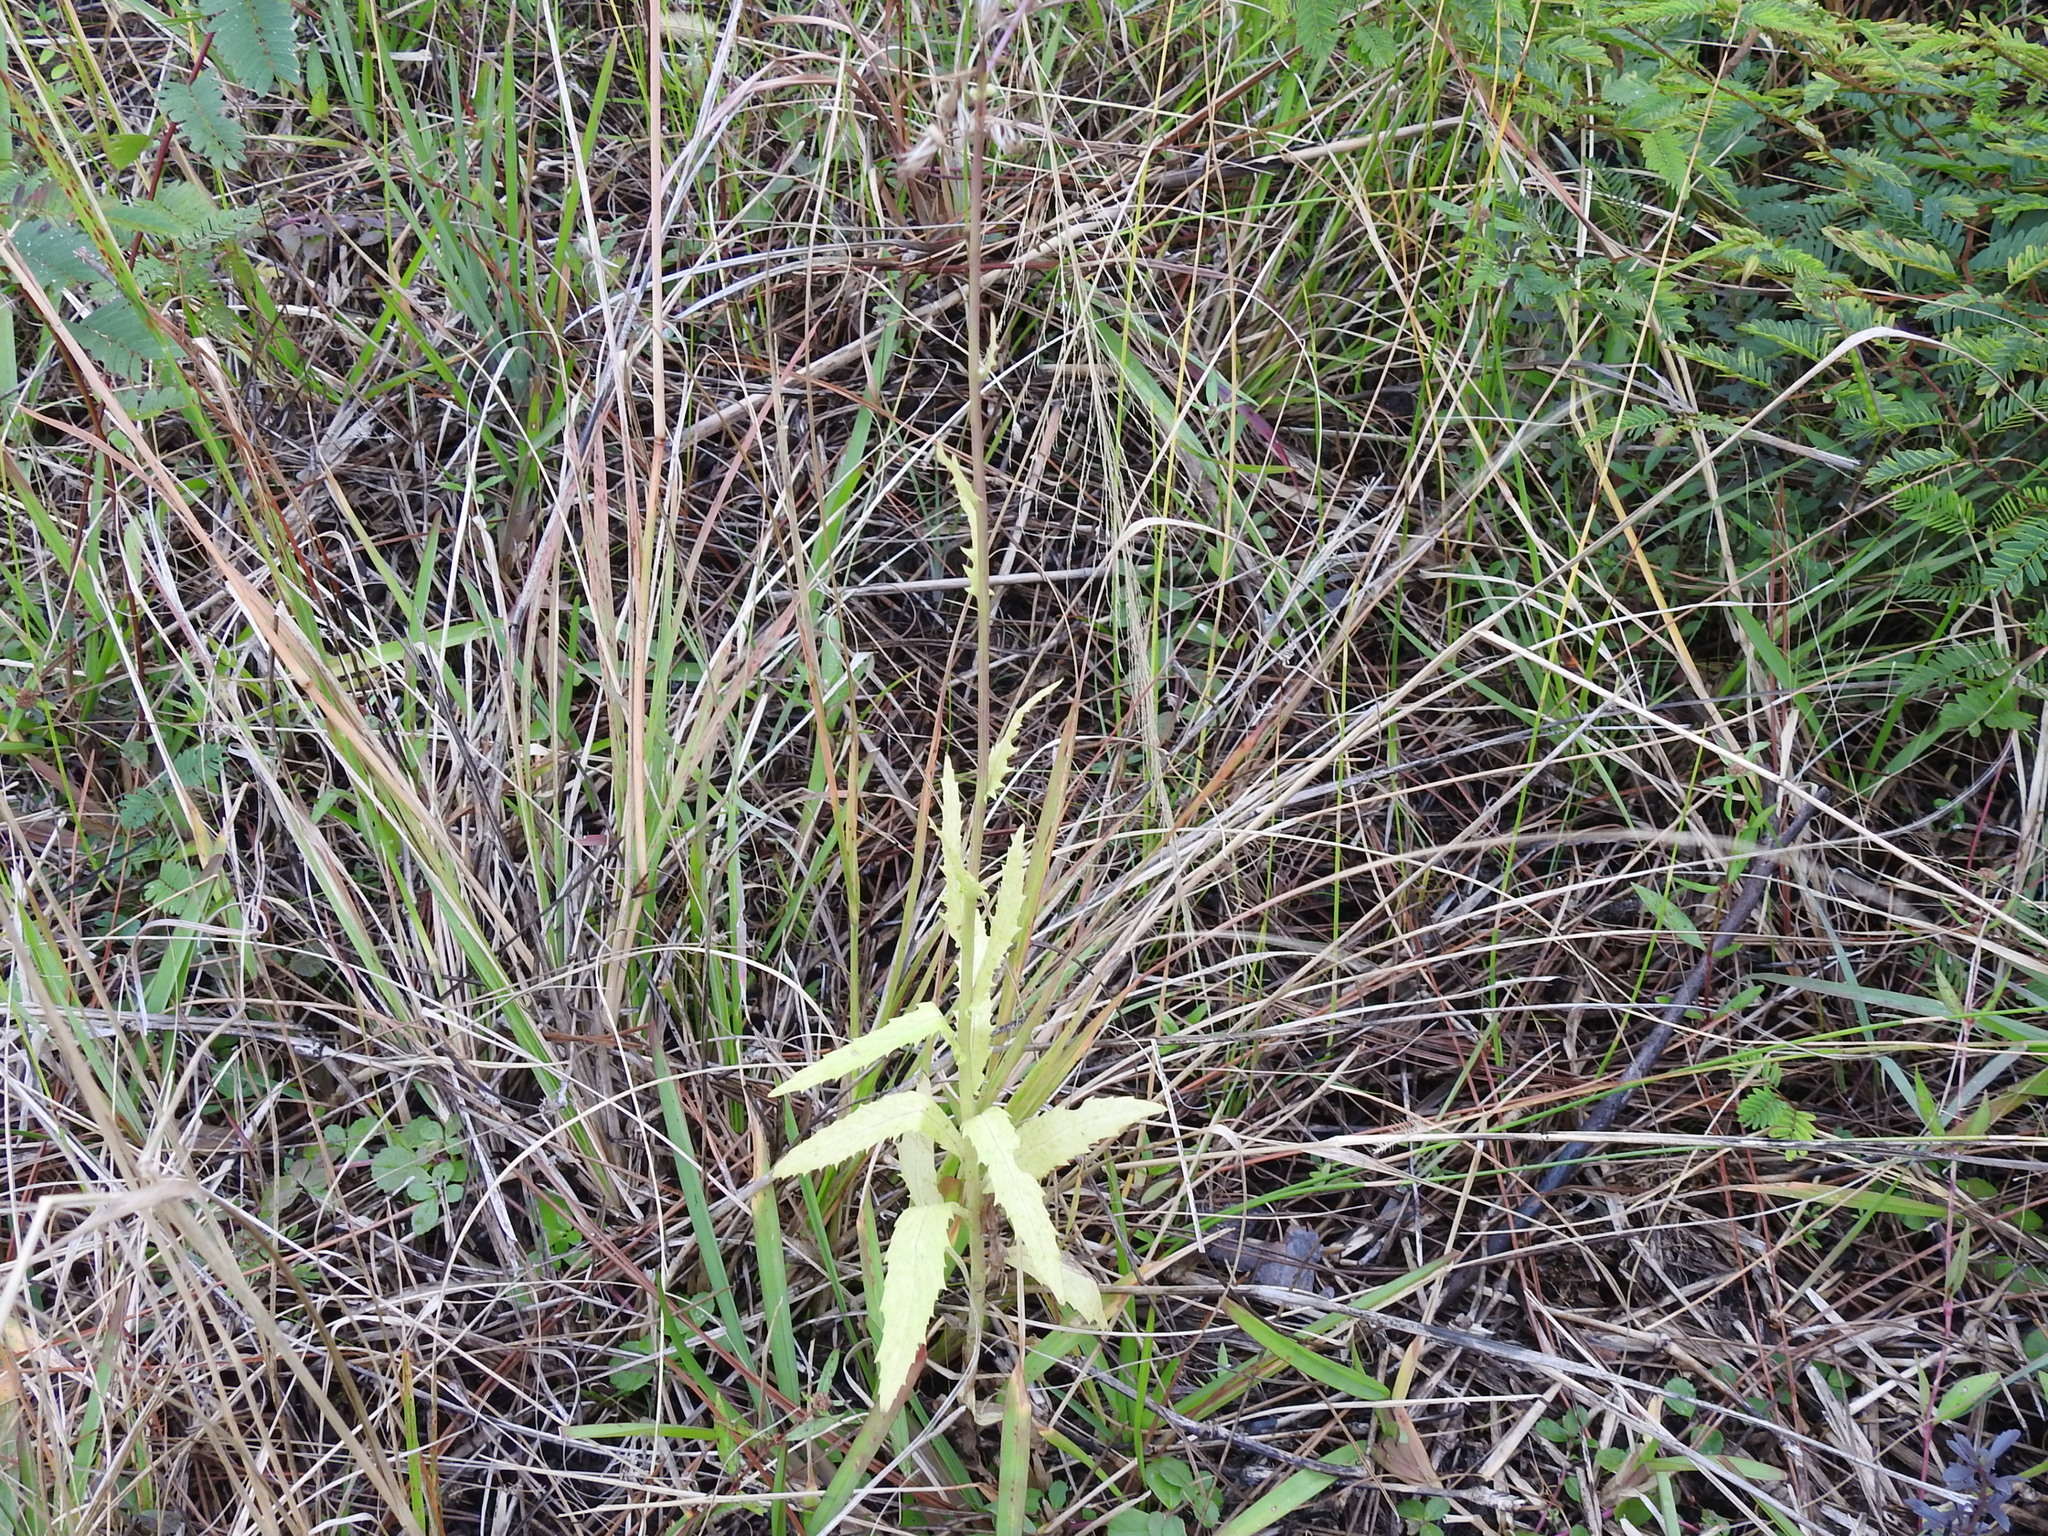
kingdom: Plantae
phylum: Tracheophyta
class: Magnoliopsida
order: Asterales
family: Asteraceae
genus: Erechtites
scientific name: Erechtites hieraciifolius
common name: American burnweed
